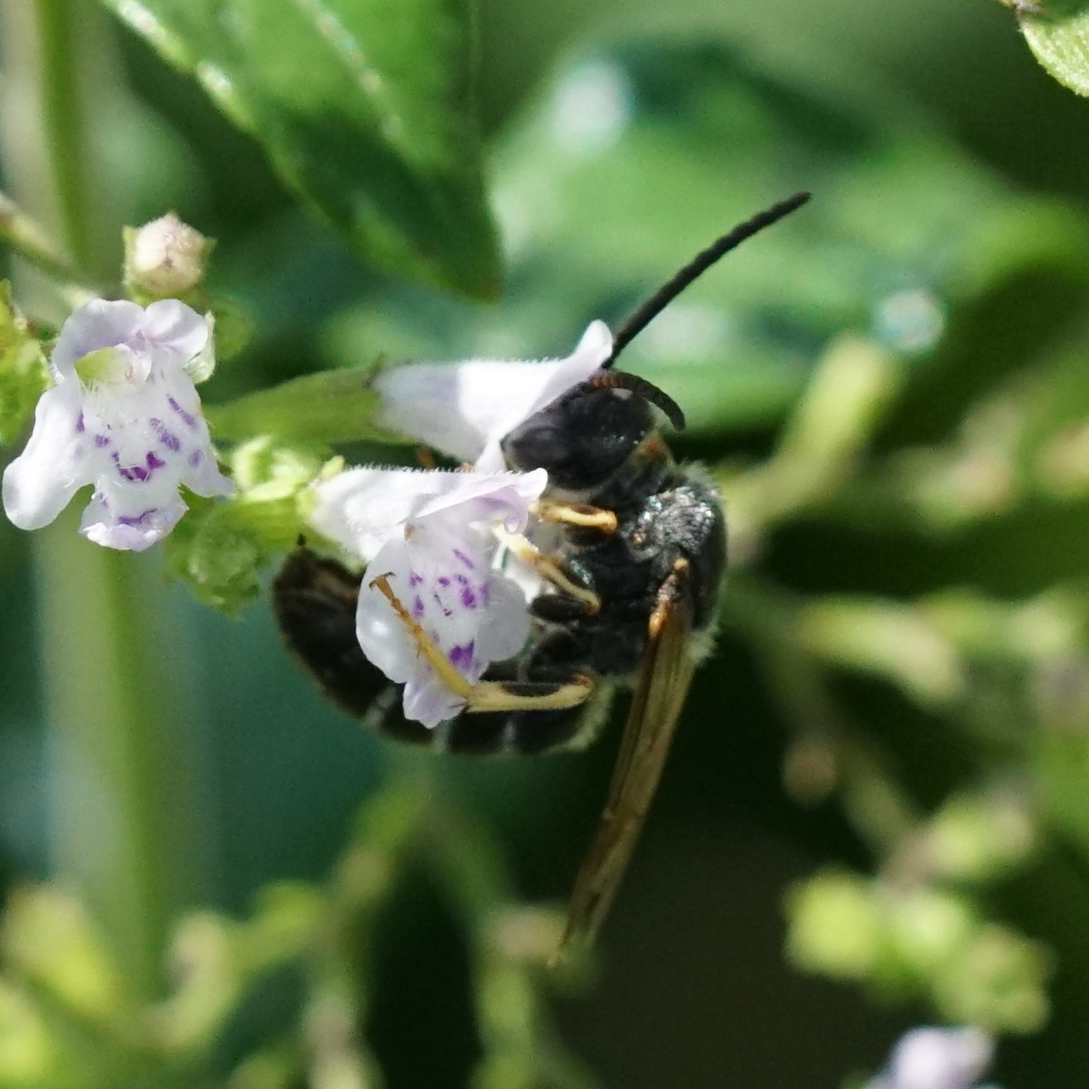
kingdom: Animalia
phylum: Arthropoda
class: Insecta
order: Hymenoptera
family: Halictidae
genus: Halictus
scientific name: Halictus rubicundus
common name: Orange-legged furrow bee
